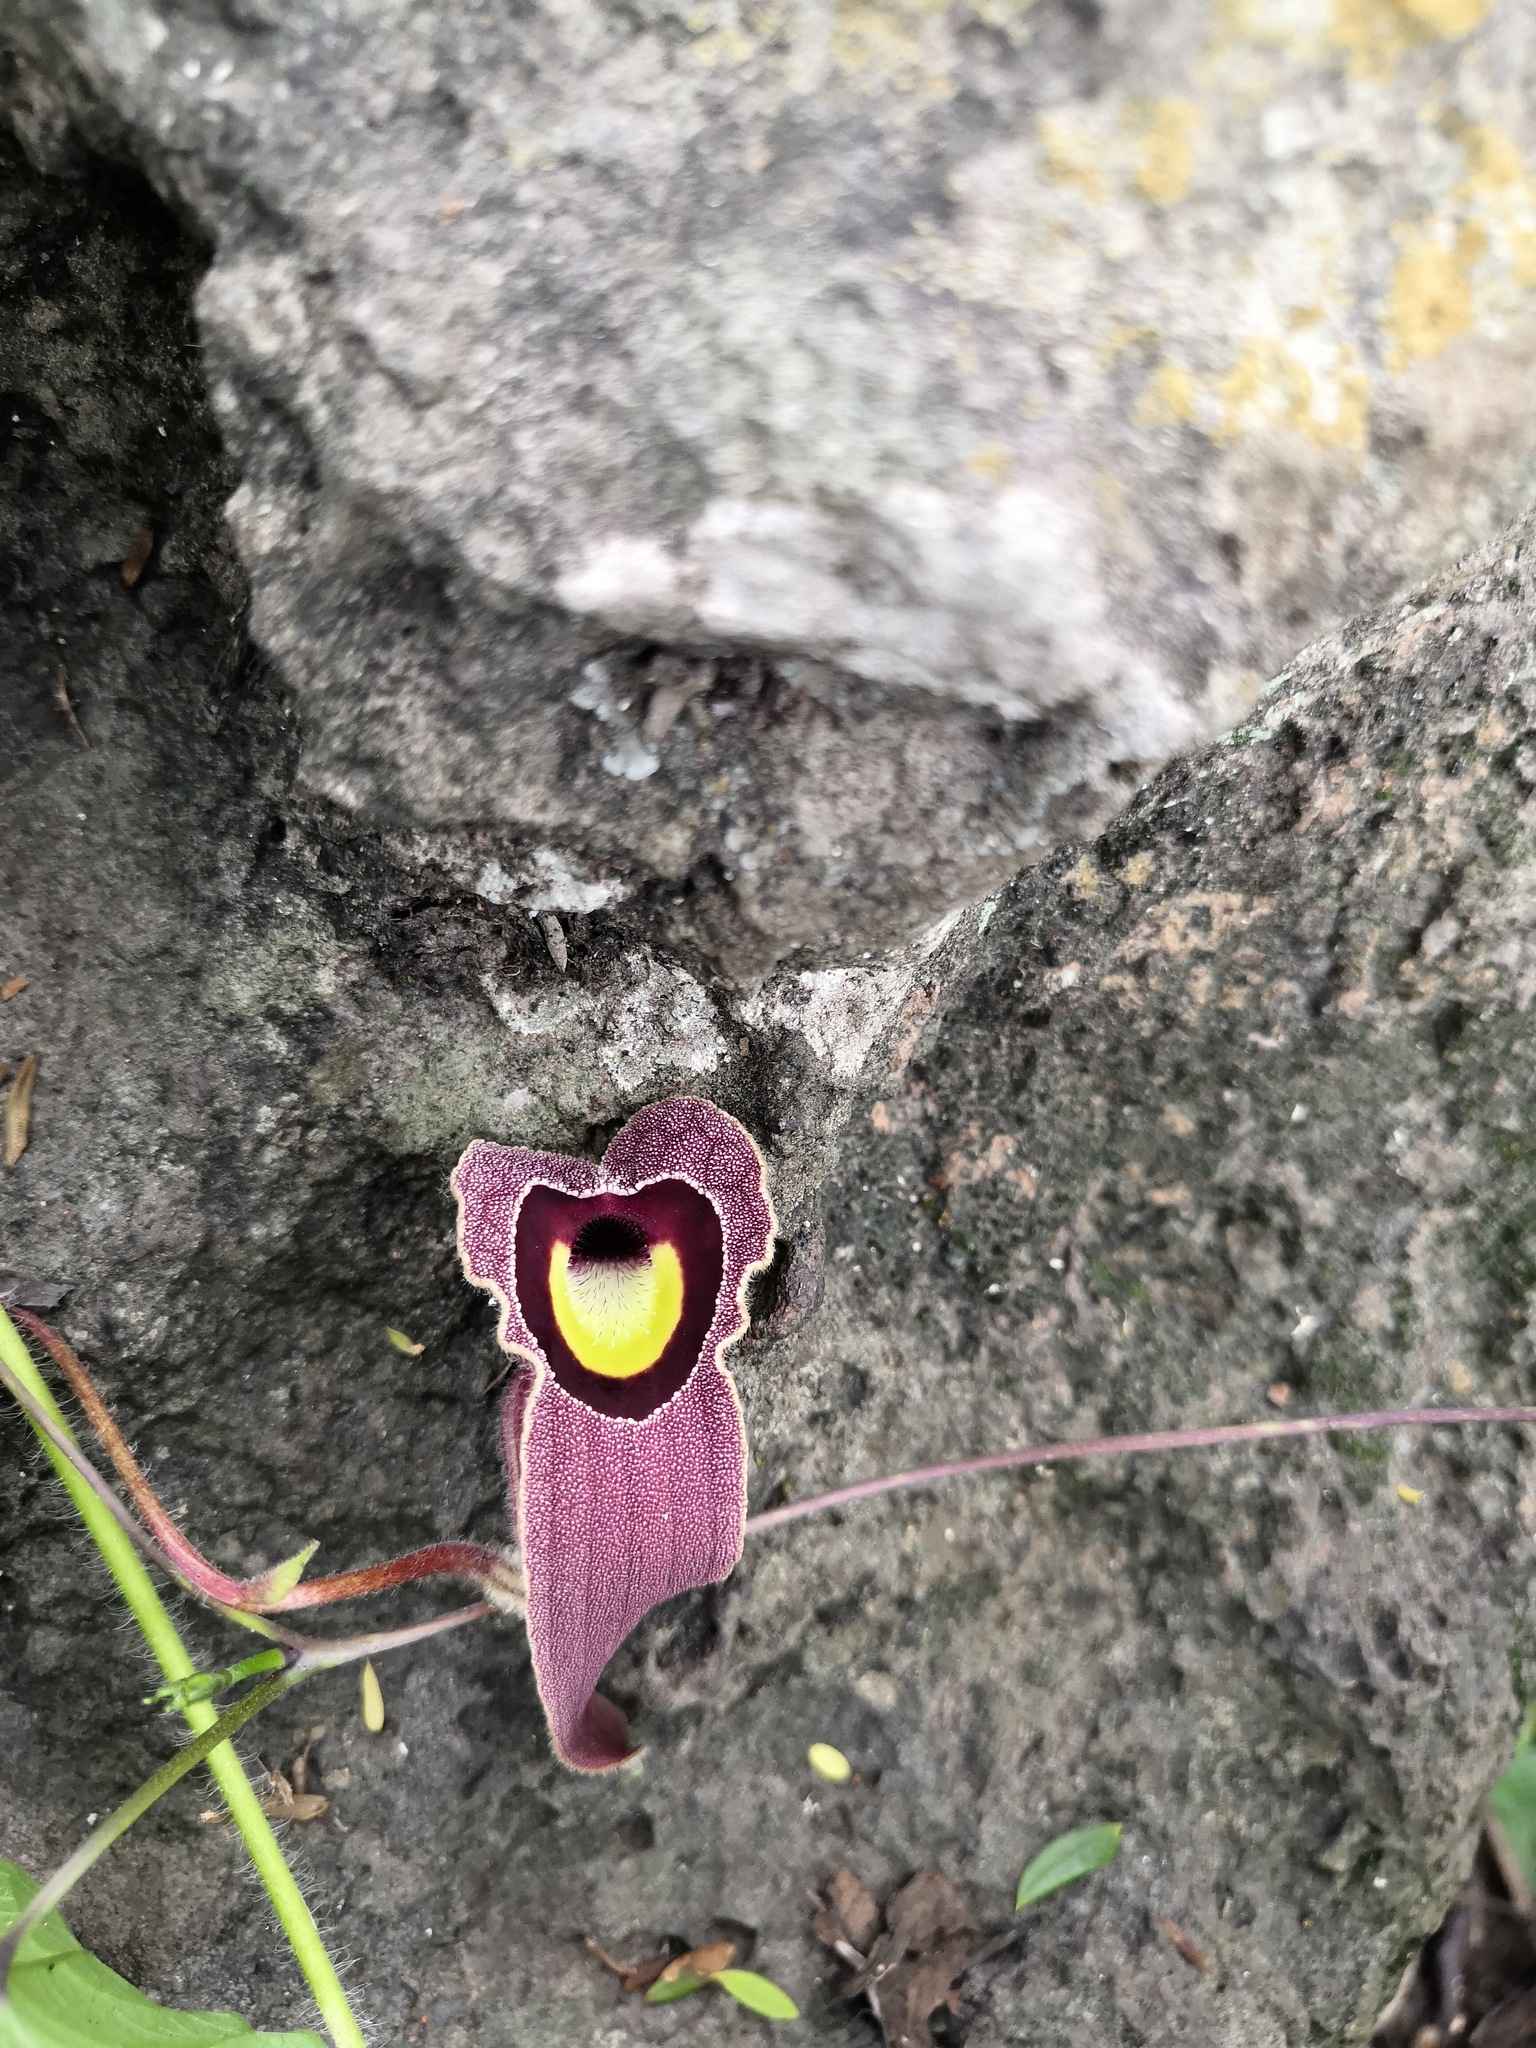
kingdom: Plantae
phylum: Tracheophyta
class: Magnoliopsida
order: Piperales
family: Aristolochiaceae
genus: Aristolochia
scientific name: Aristolochia foetida
